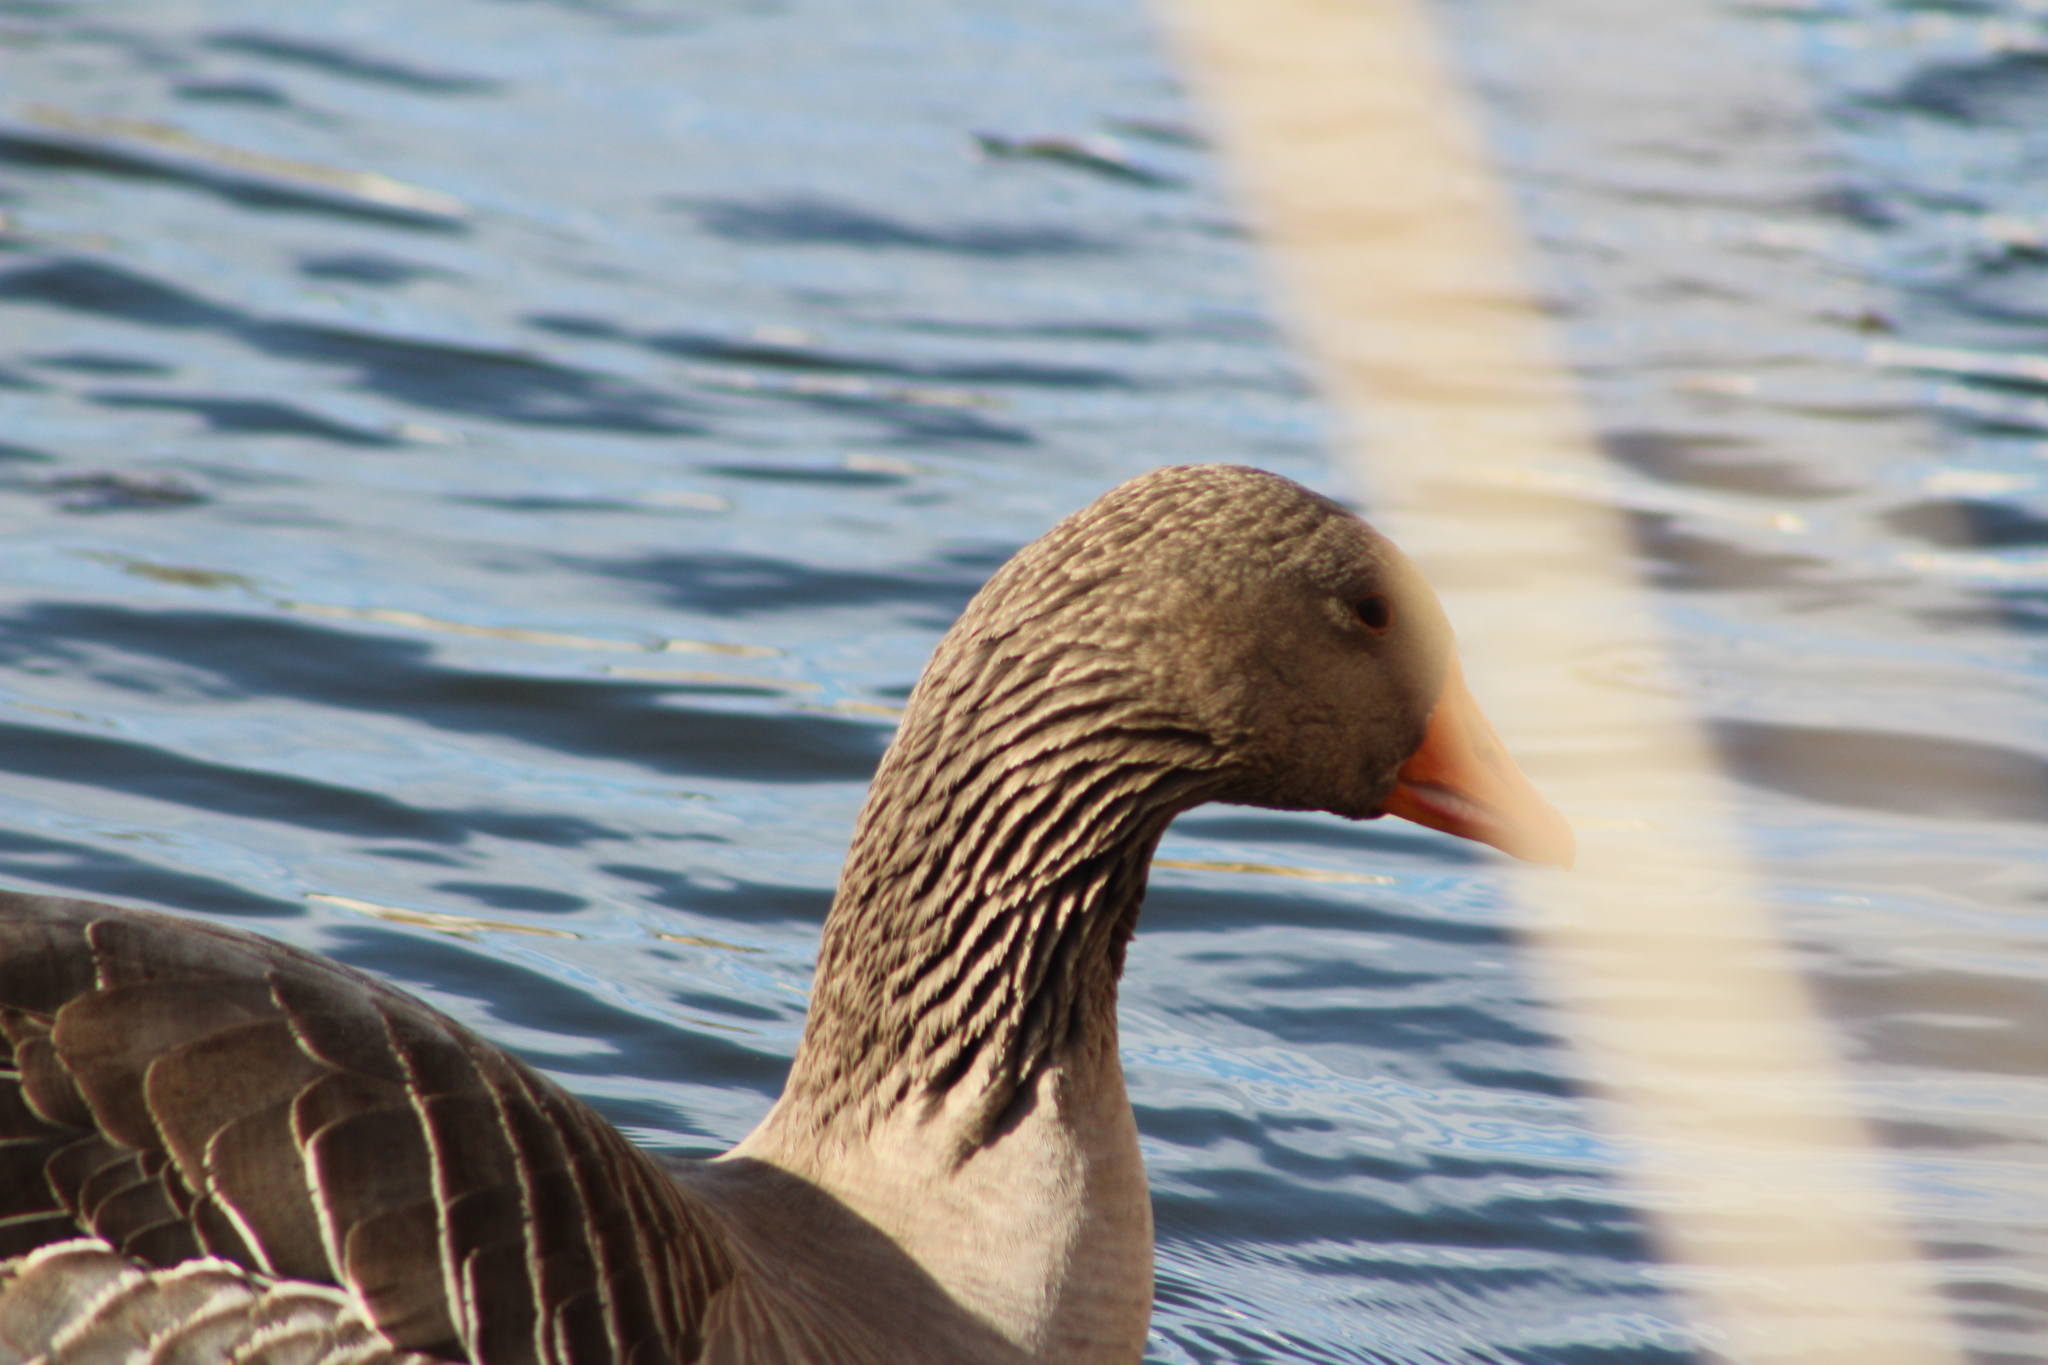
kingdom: Animalia
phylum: Chordata
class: Aves
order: Anseriformes
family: Anatidae
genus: Anser
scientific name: Anser anser
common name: Greylag goose
